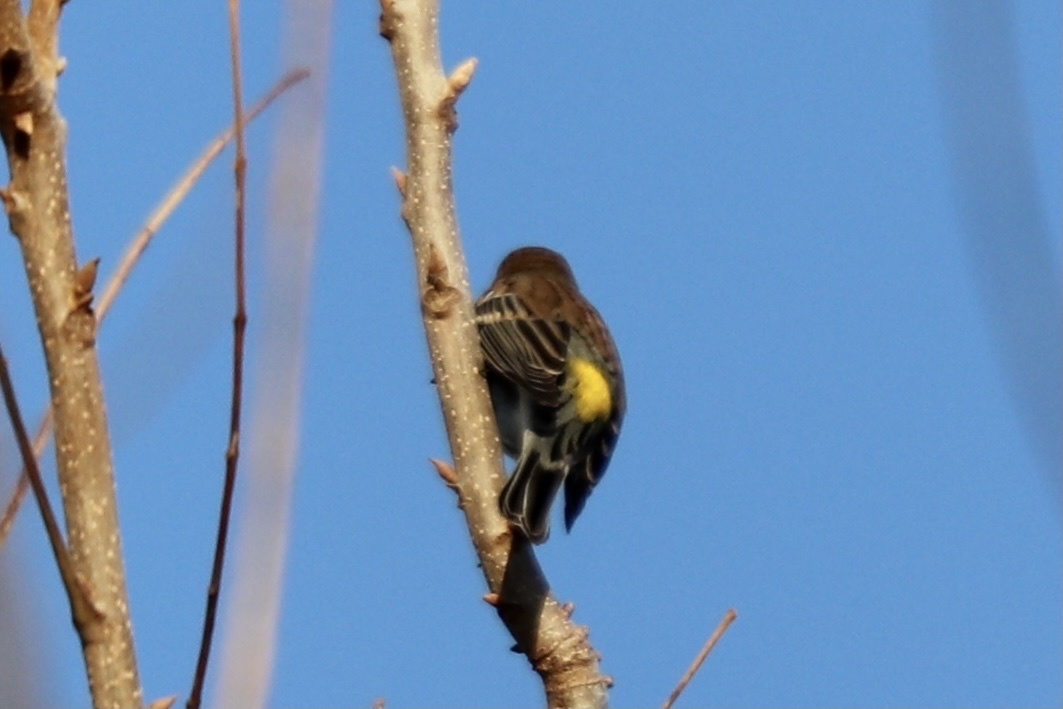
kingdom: Animalia
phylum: Chordata
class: Aves
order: Passeriformes
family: Parulidae
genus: Setophaga
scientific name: Setophaga coronata
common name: Myrtle warbler
